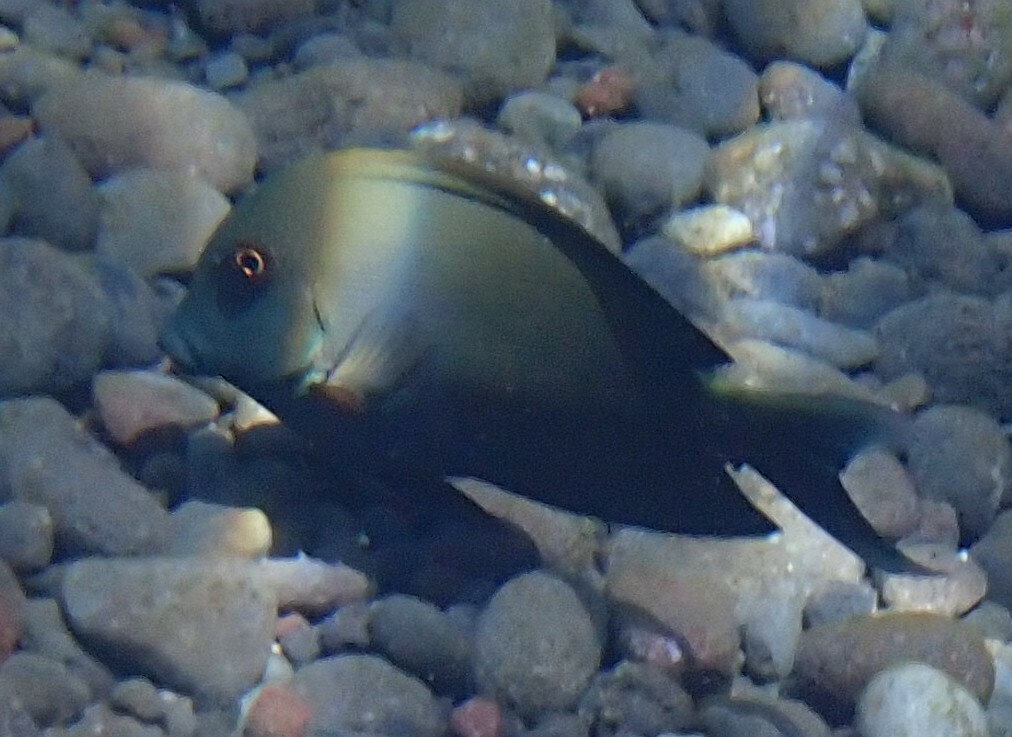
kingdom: Animalia
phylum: Chordata
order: Perciformes
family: Acanthuridae
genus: Ctenochaetus
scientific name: Ctenochaetus striatus
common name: Bristle-toothed surgeonfish
